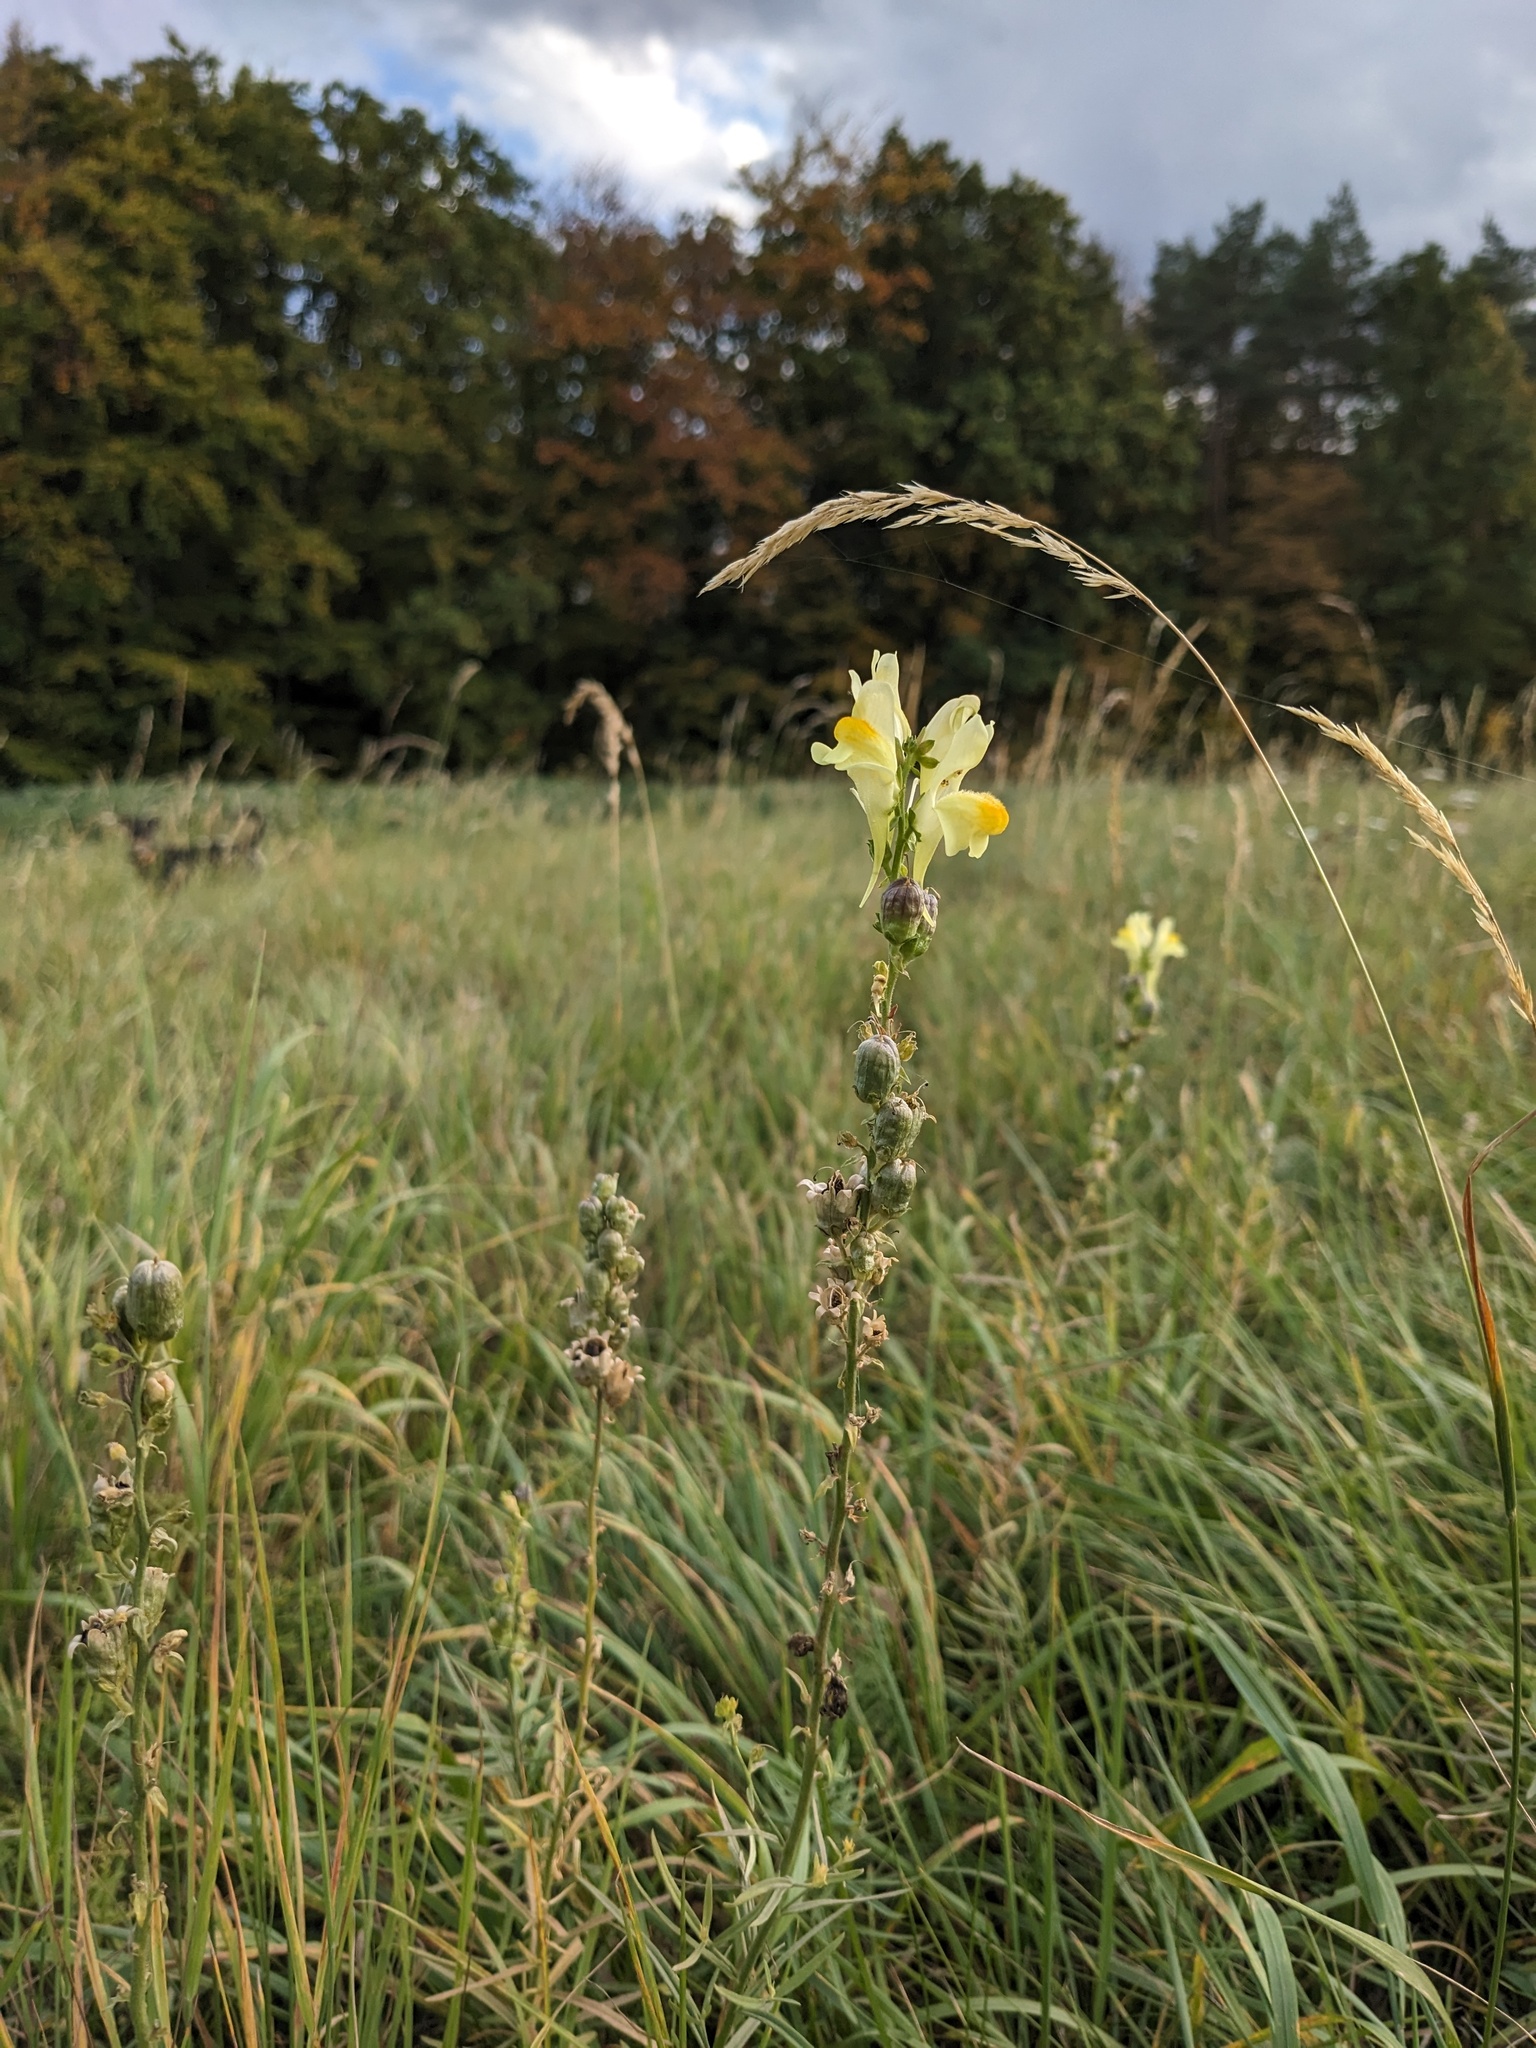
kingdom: Plantae
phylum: Tracheophyta
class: Magnoliopsida
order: Lamiales
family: Plantaginaceae
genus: Linaria
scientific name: Linaria vulgaris
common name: Butter and eggs
